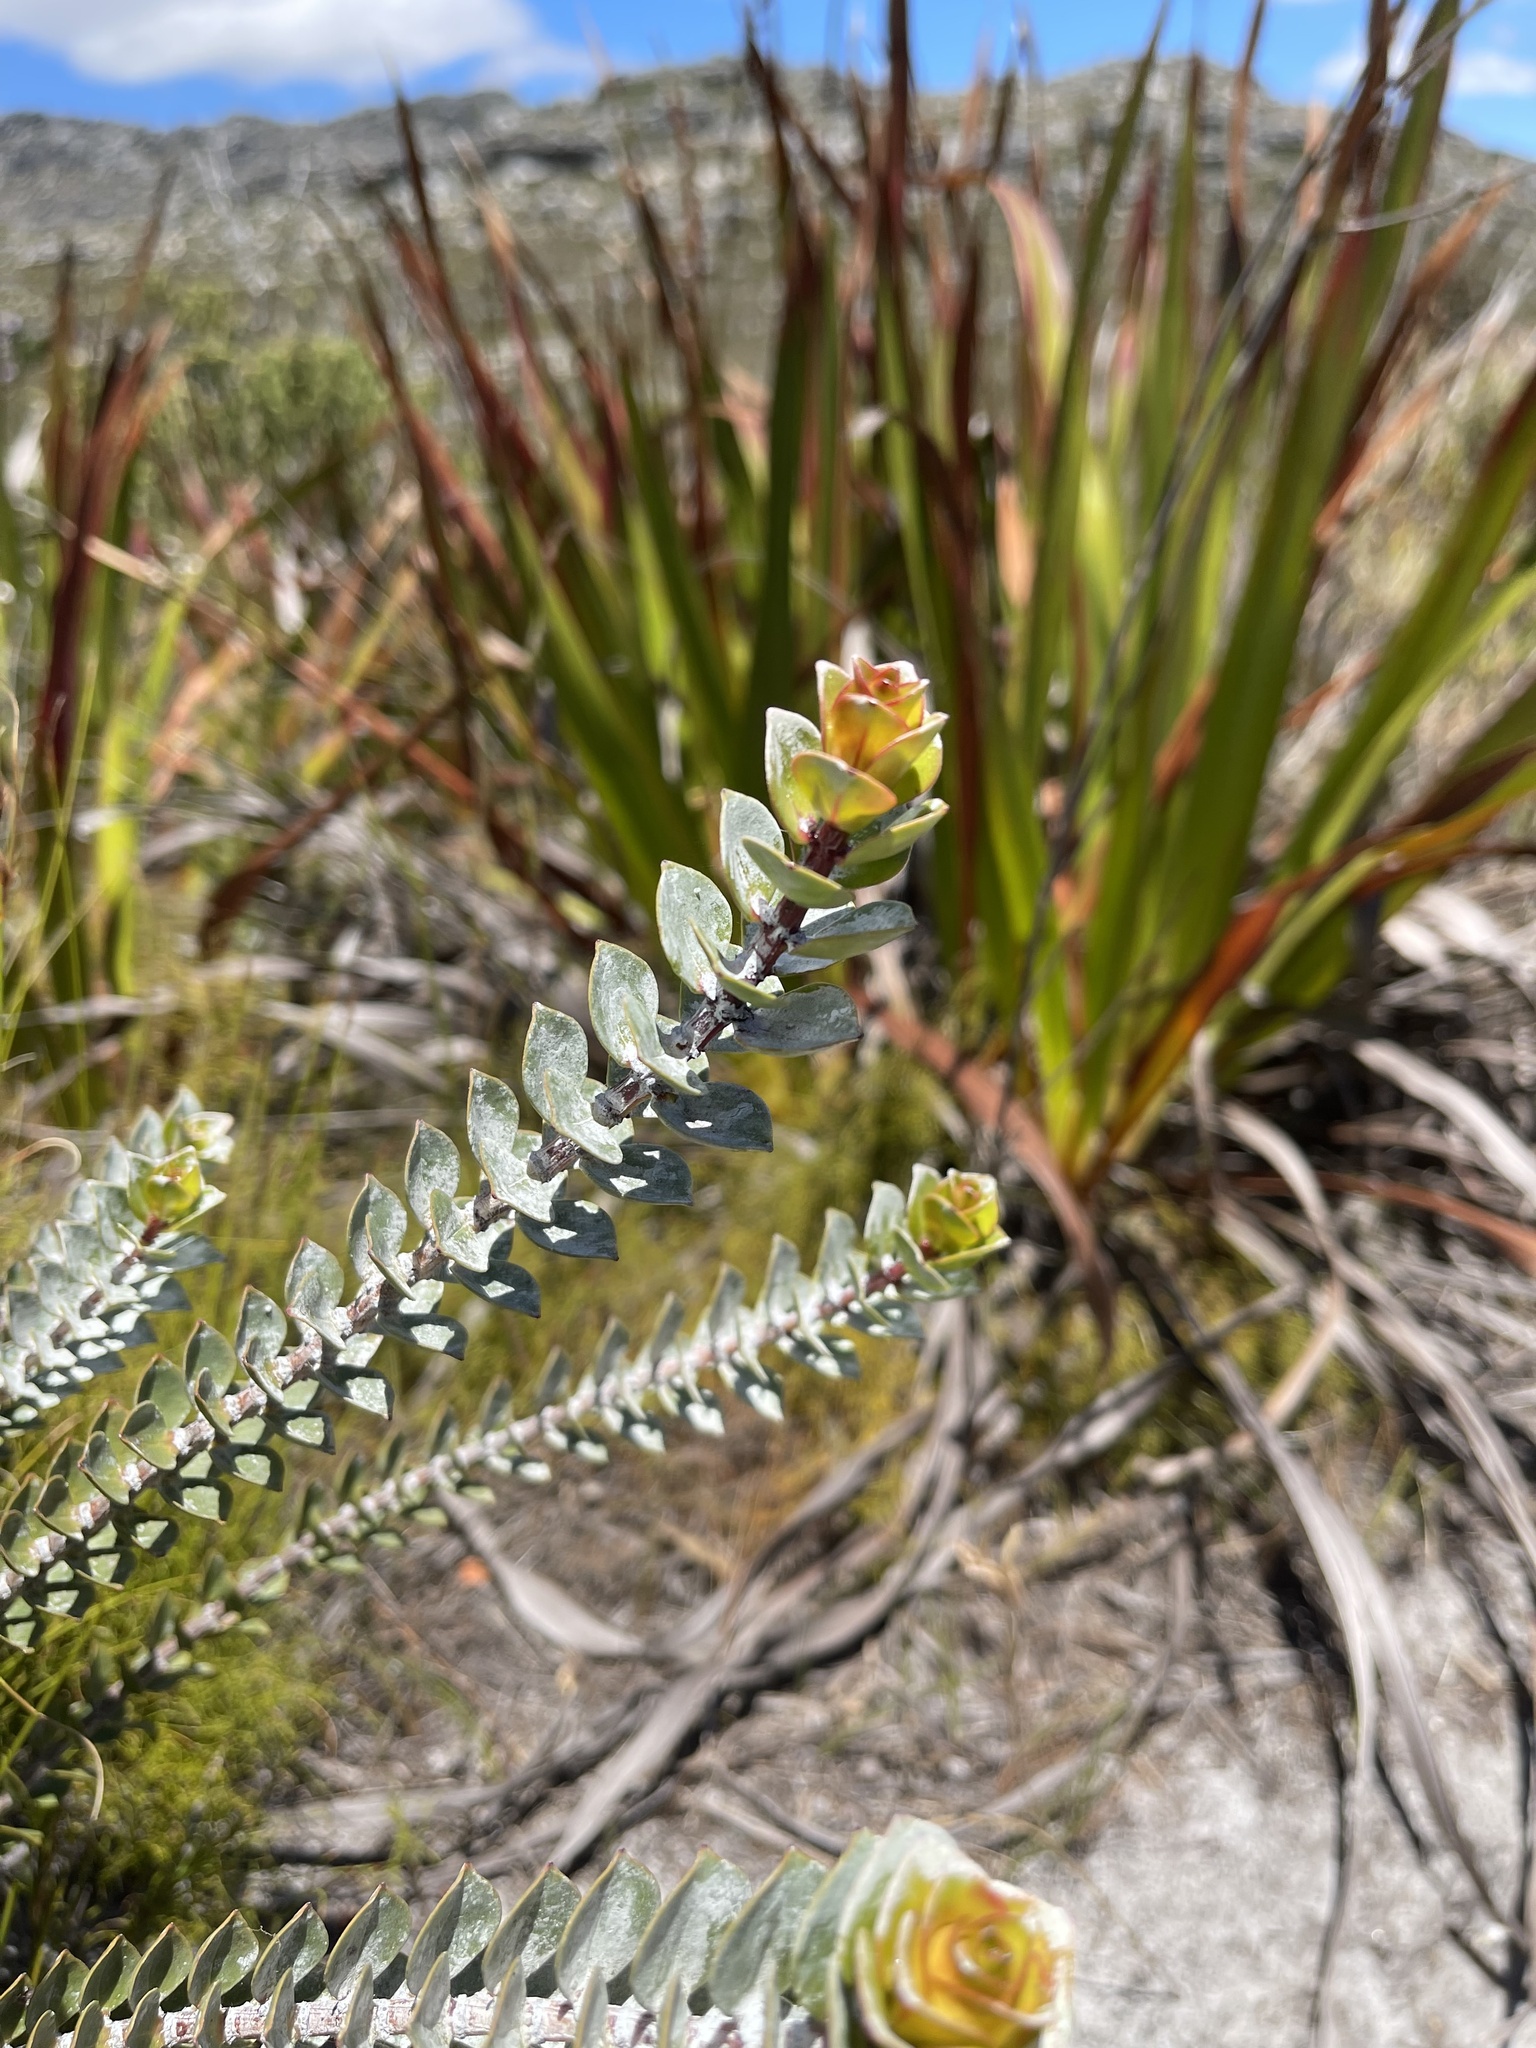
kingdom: Plantae
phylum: Tracheophyta
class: Magnoliopsida
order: Myrtales
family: Penaeaceae
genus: Saltera
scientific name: Saltera sarcocolla
